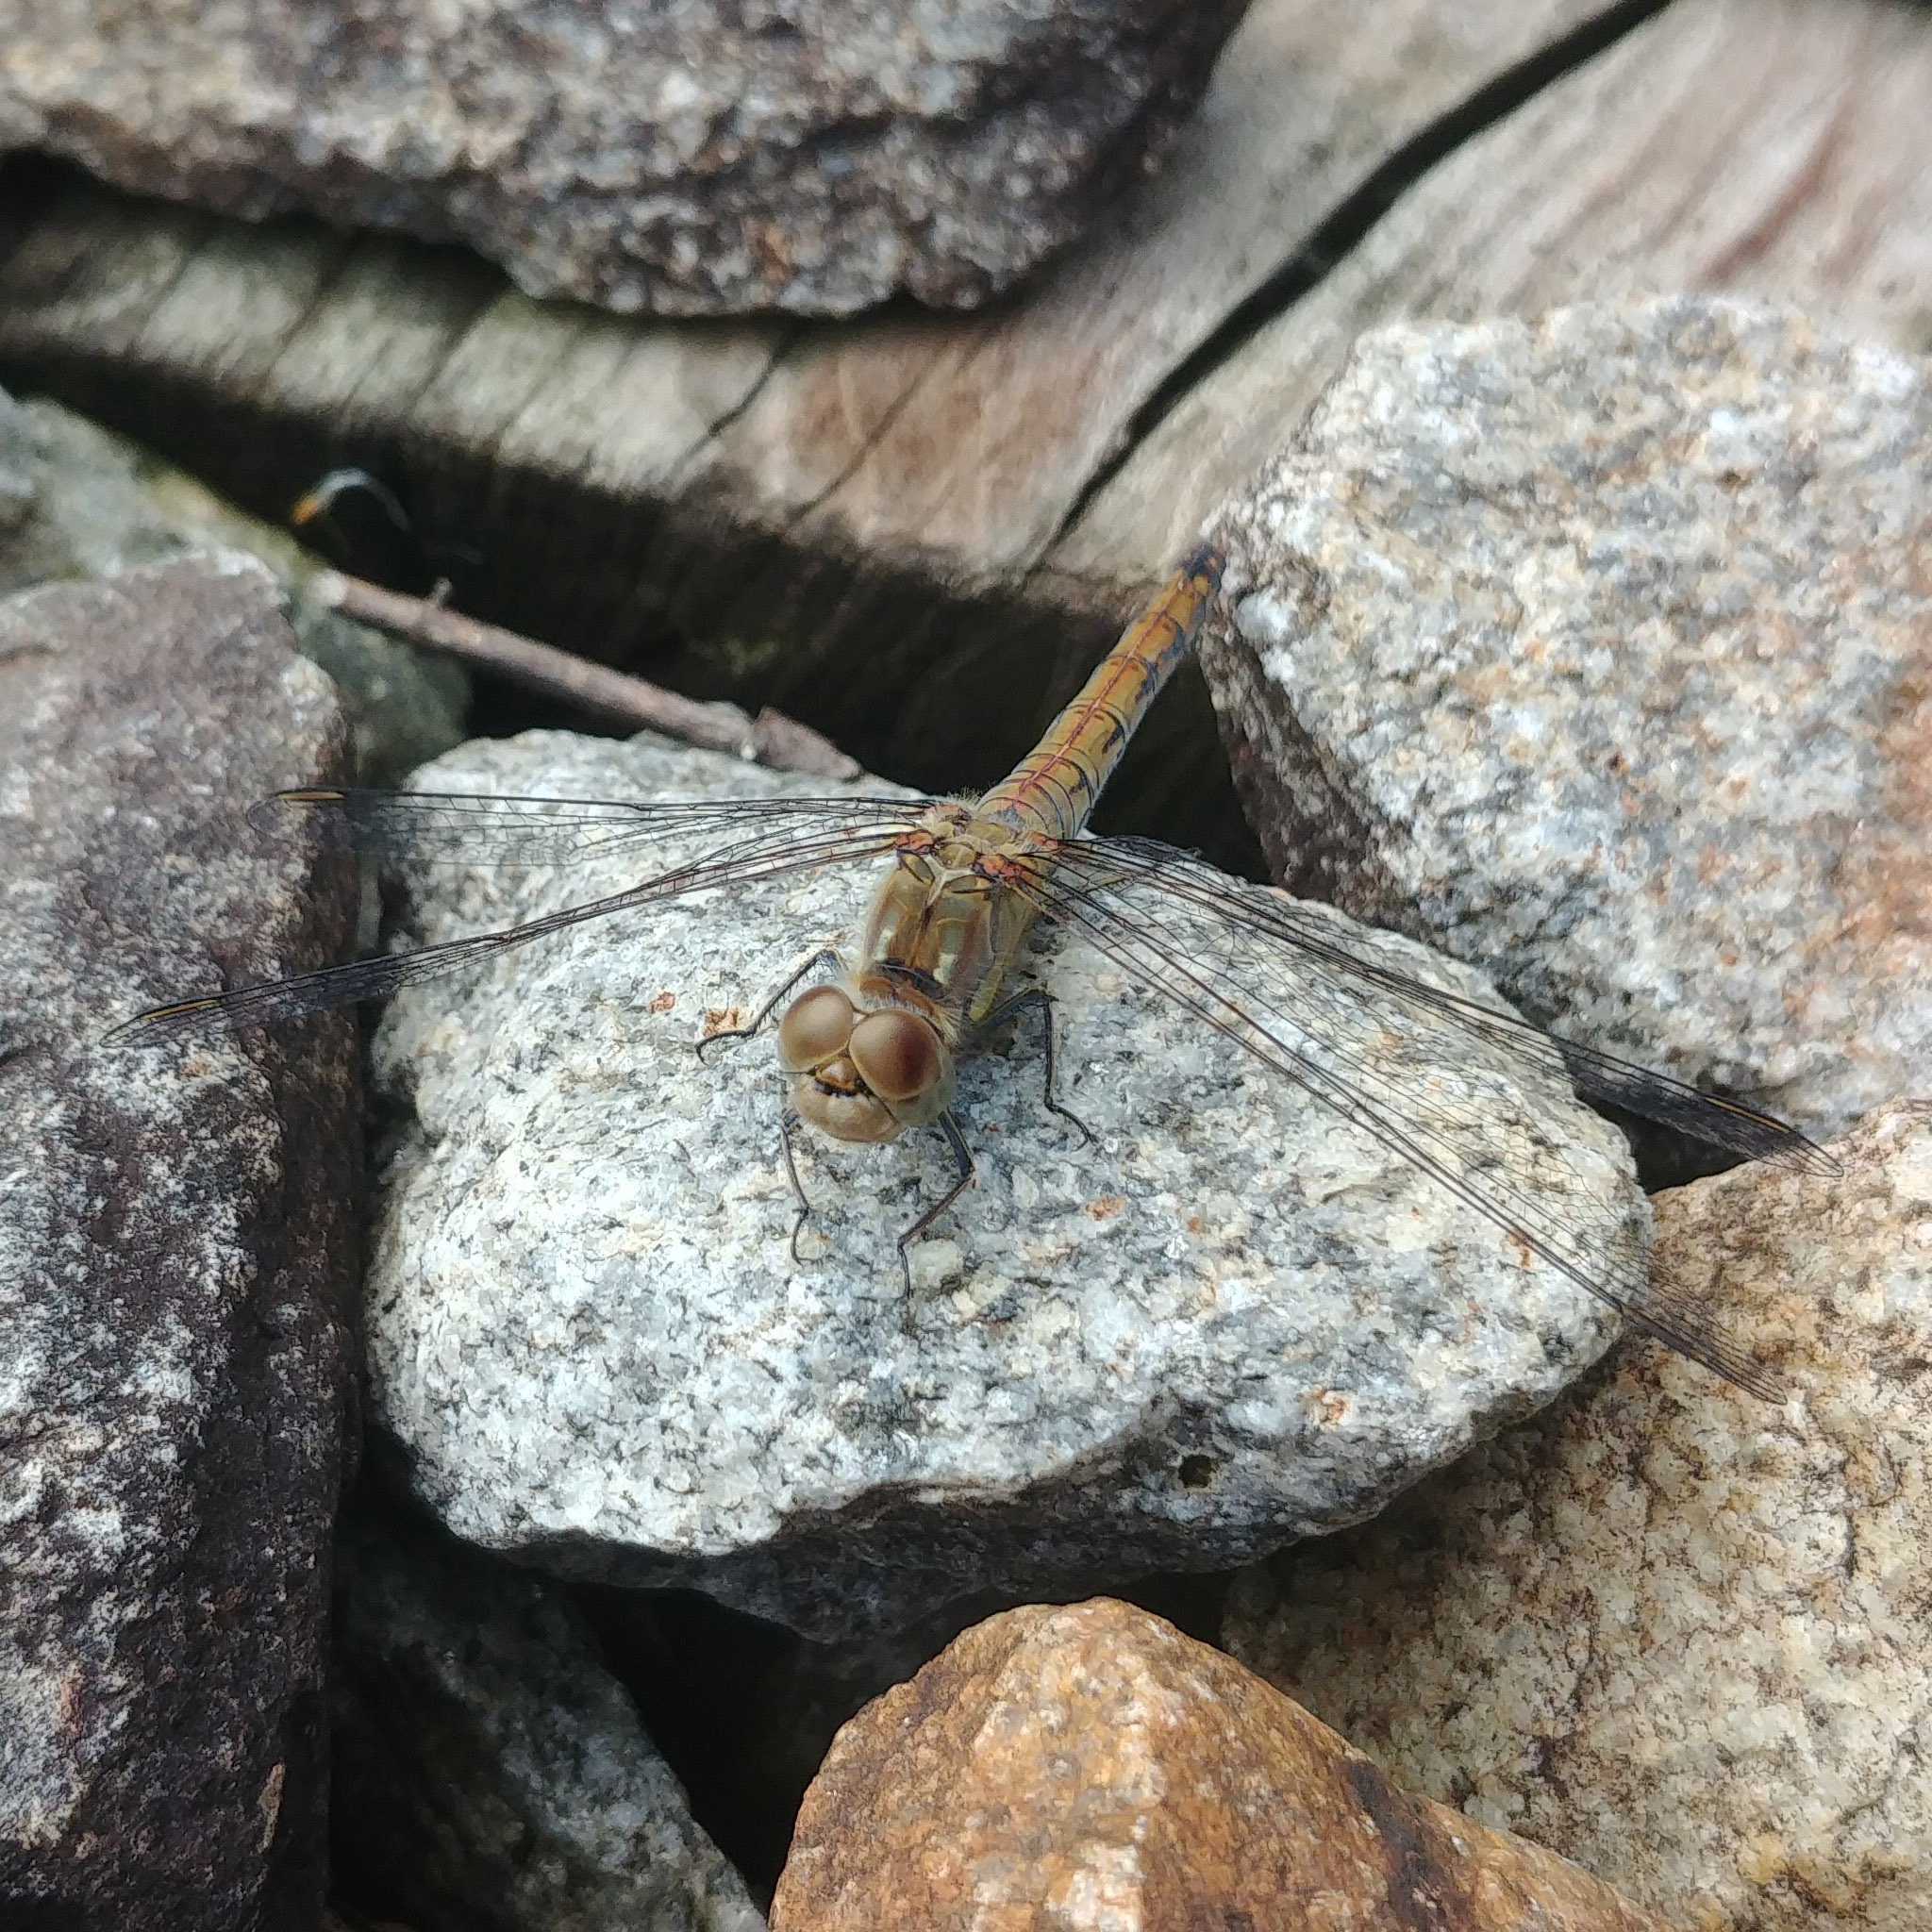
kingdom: Animalia
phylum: Arthropoda
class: Insecta
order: Odonata
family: Libellulidae
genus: Sympetrum
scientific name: Sympetrum striolatum
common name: Common darter
